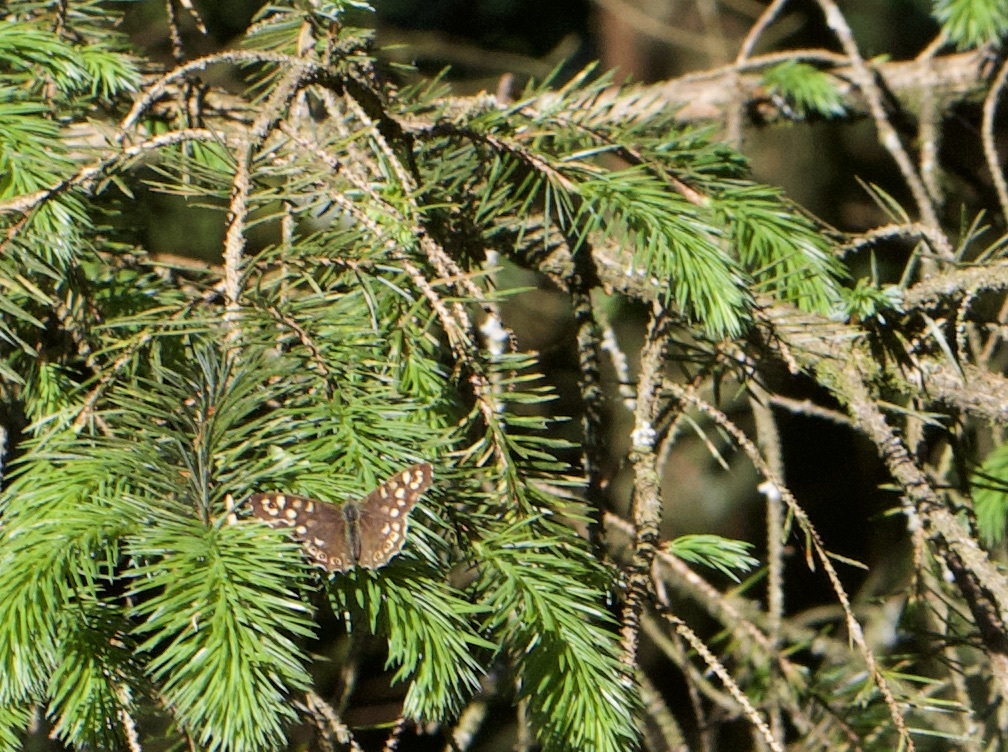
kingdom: Animalia
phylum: Arthropoda
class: Insecta
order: Lepidoptera
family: Nymphalidae
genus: Pararge
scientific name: Pararge aegeria
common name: Speckled wood
